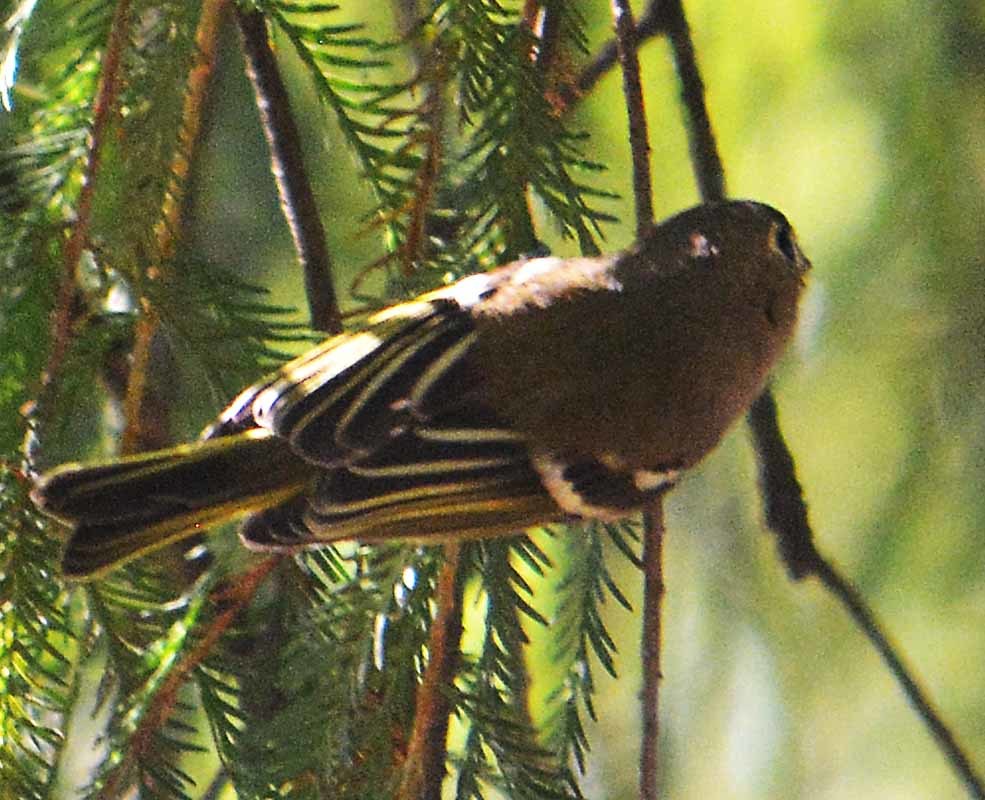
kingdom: Animalia
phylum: Chordata
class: Aves
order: Passeriformes
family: Vireonidae
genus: Vireo
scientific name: Vireo huttoni
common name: Hutton's vireo
